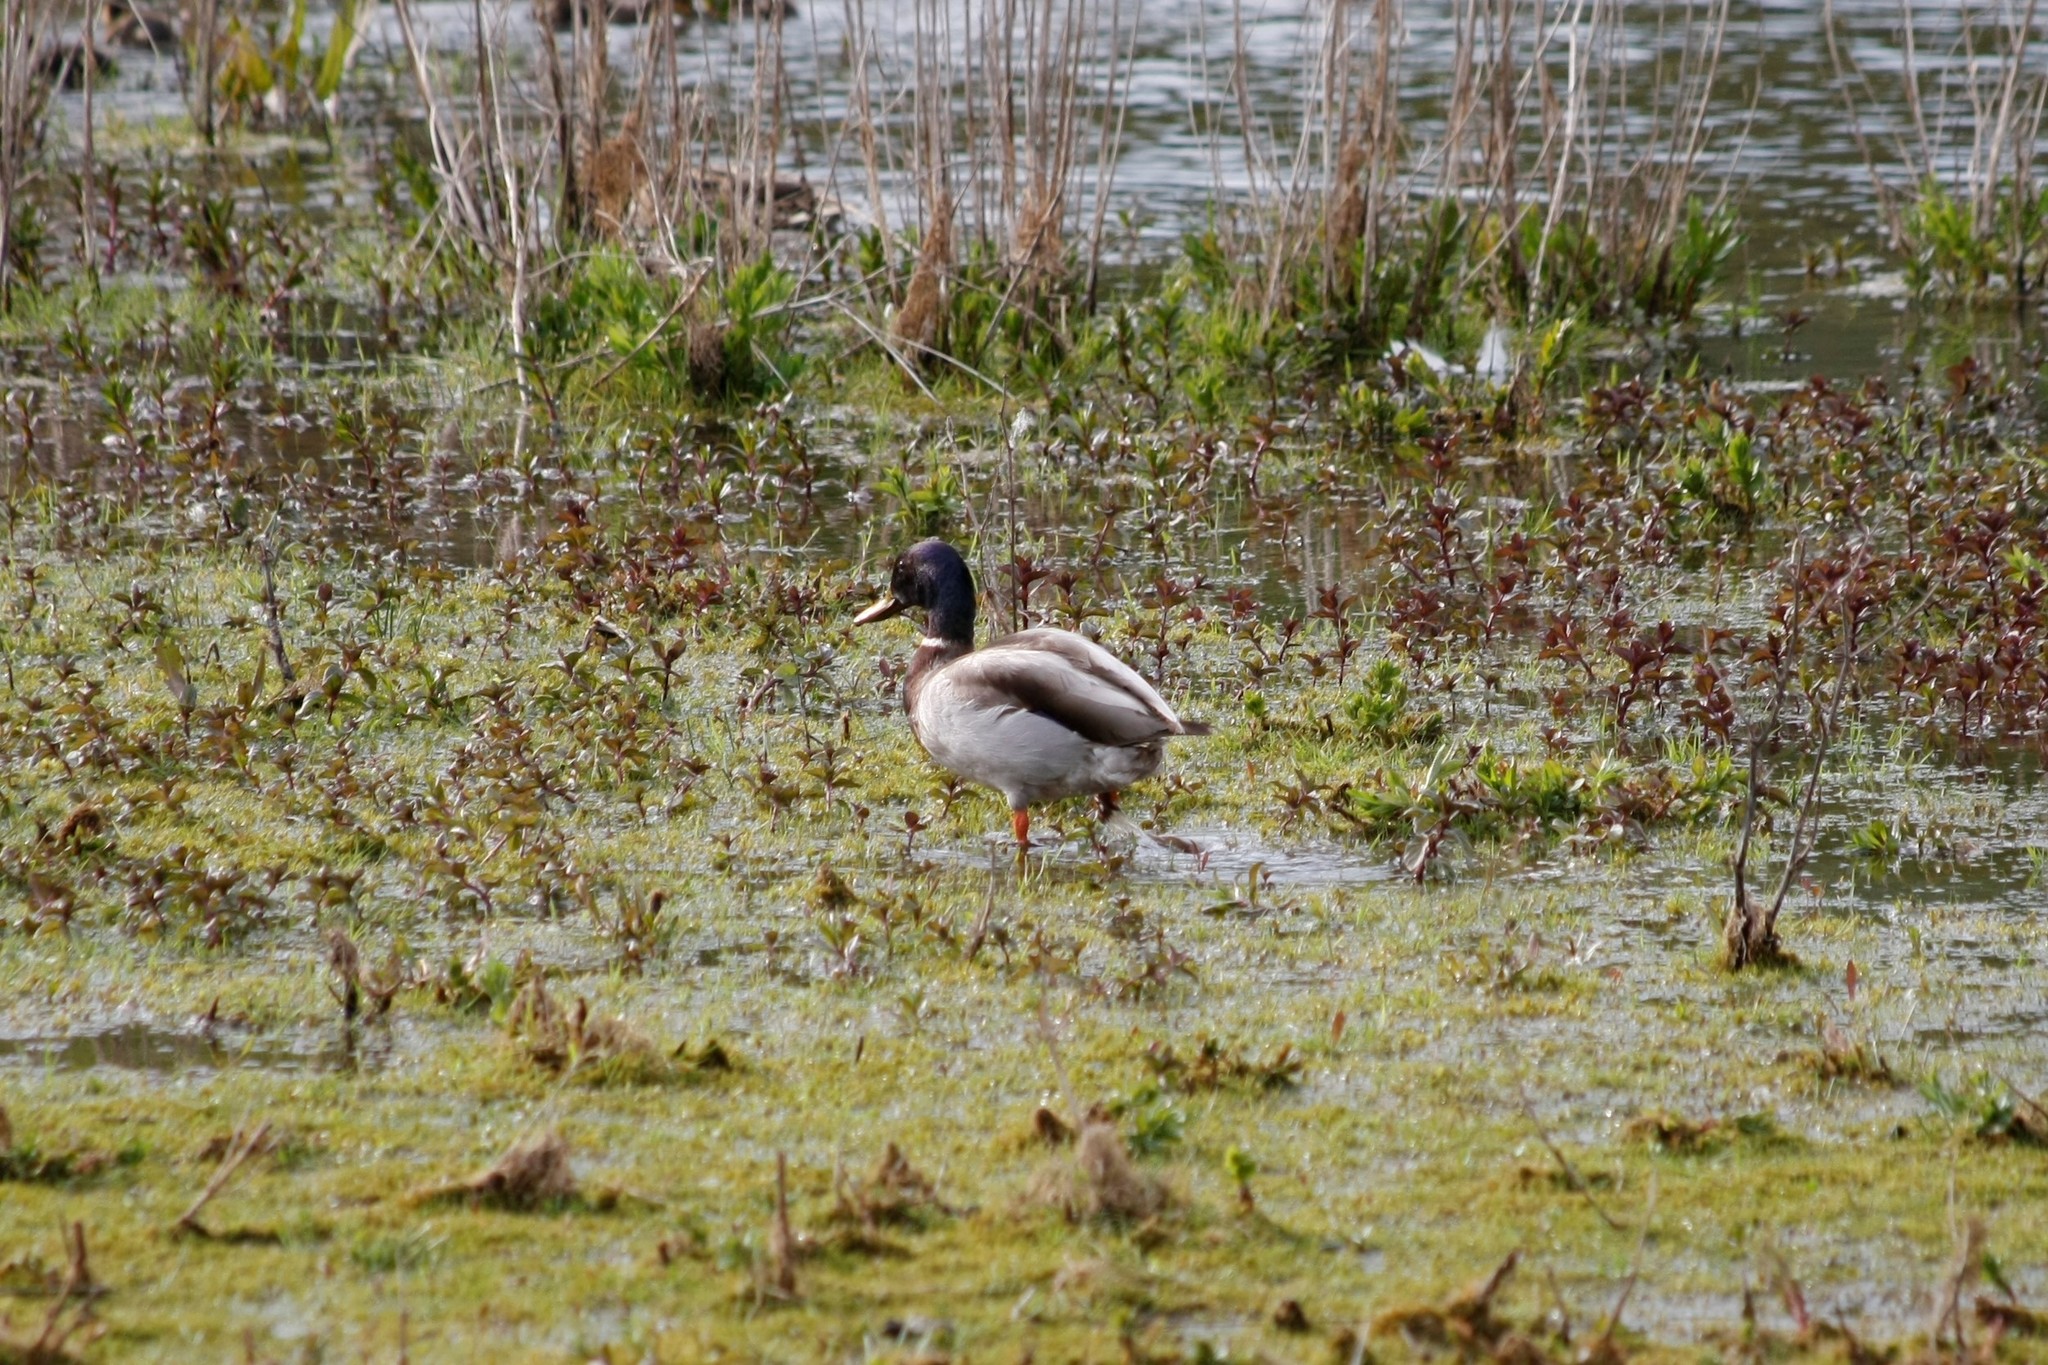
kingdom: Animalia
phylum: Chordata
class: Aves
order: Anseriformes
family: Anatidae
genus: Anas
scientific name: Anas platyrhynchos
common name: Mallard
